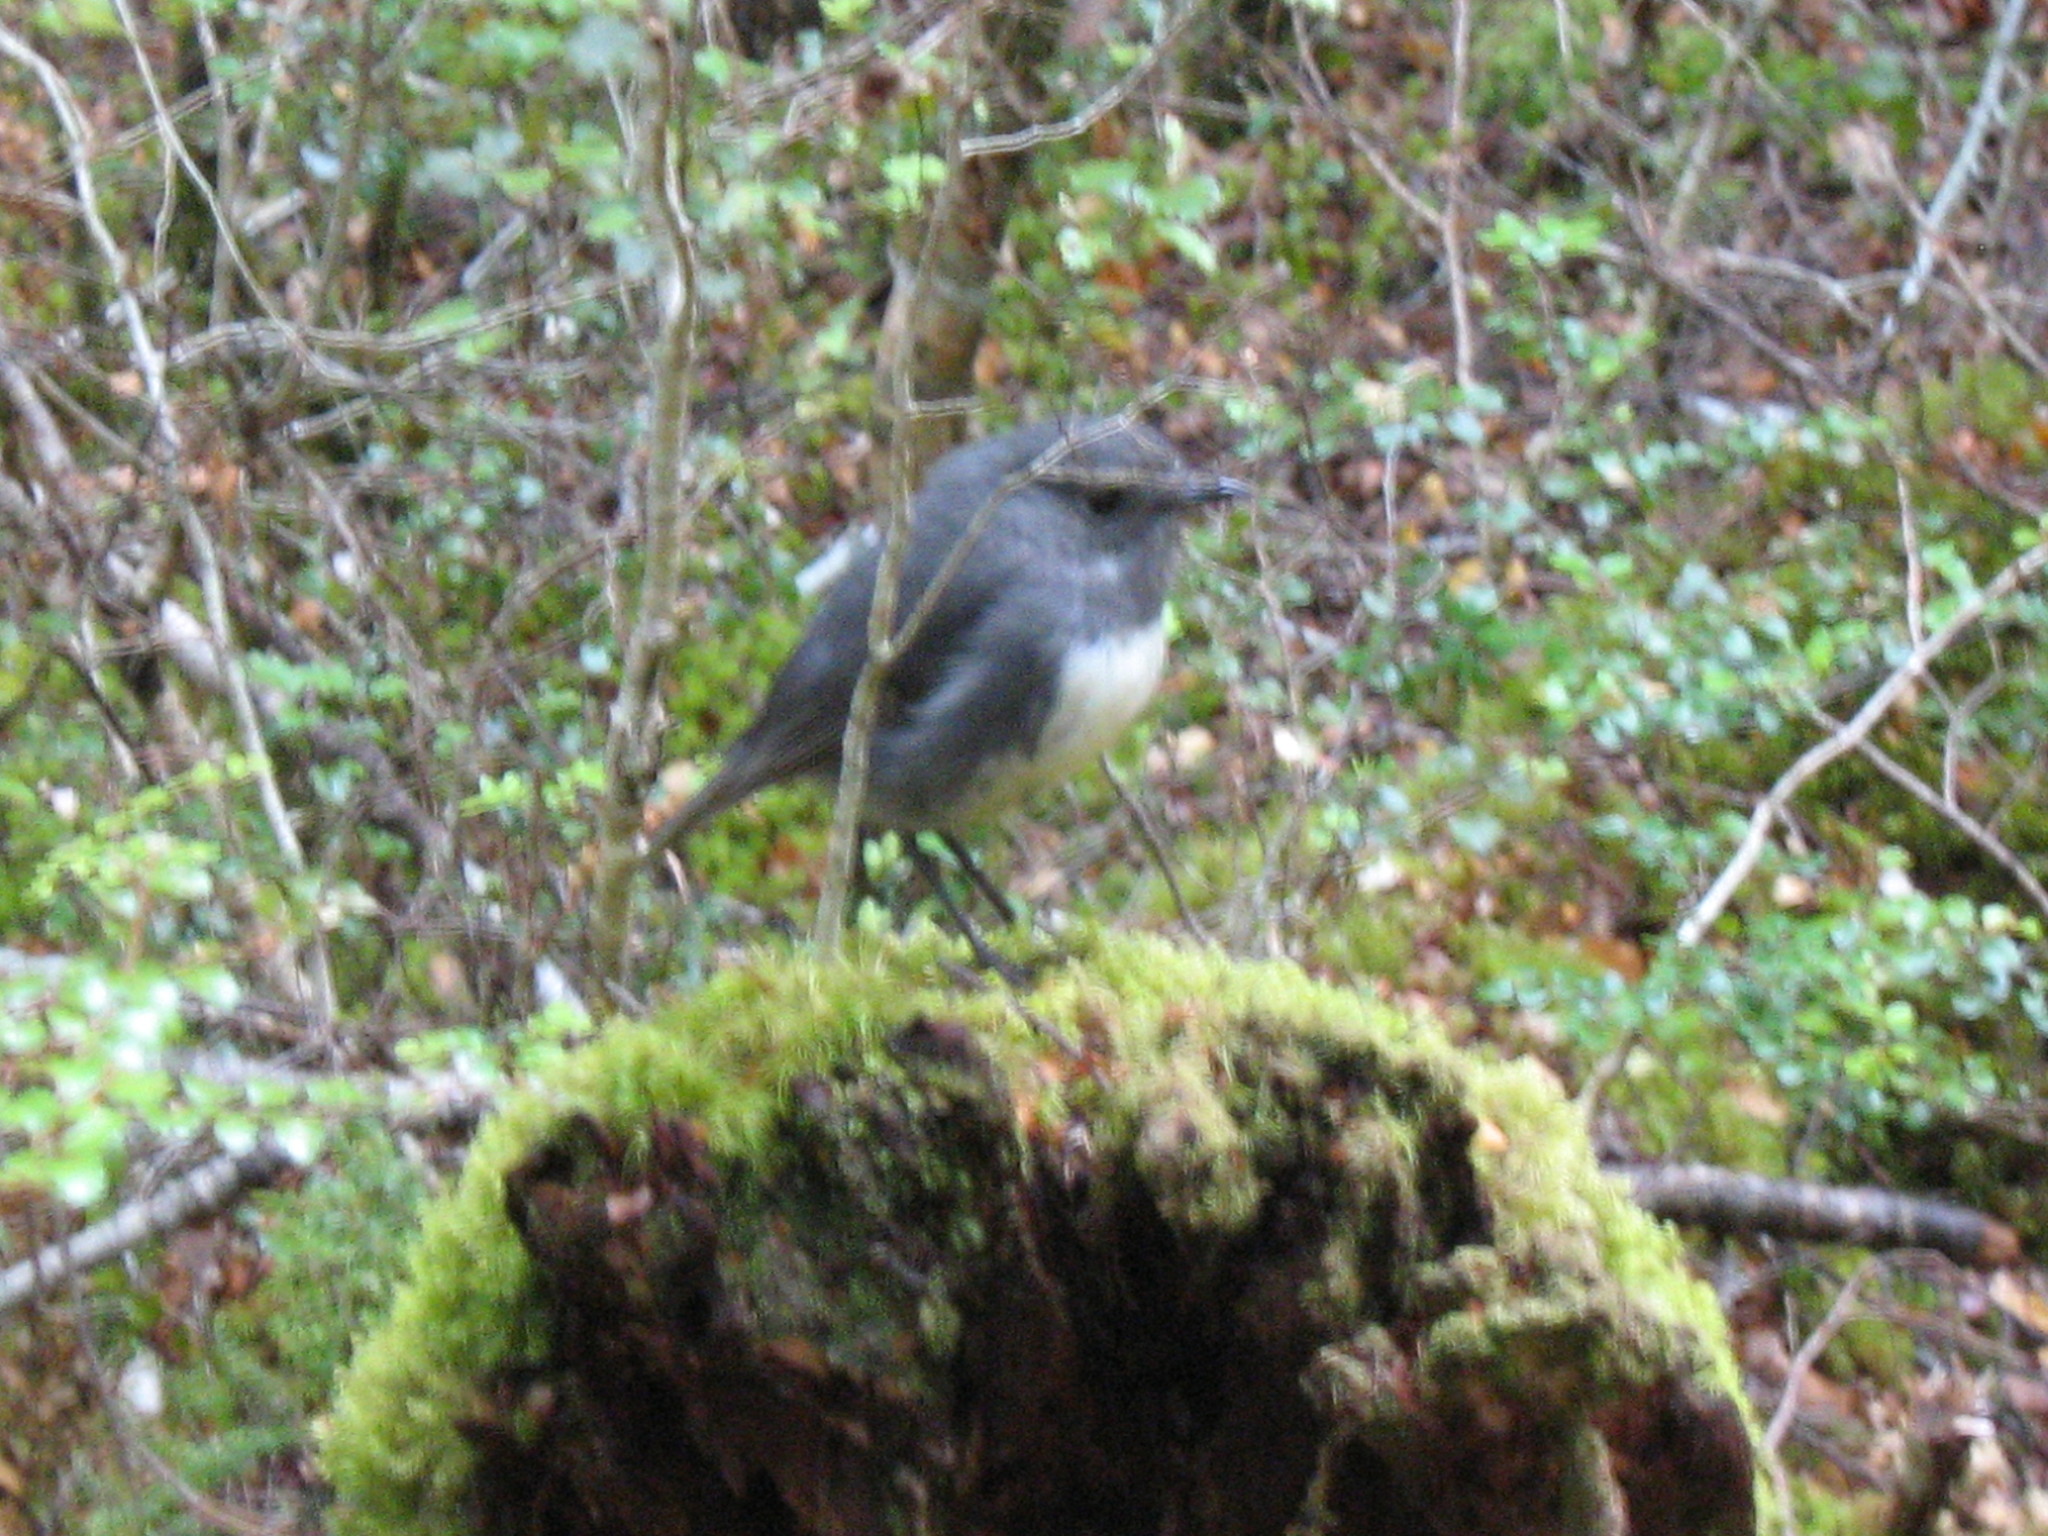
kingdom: Animalia
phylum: Chordata
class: Aves
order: Passeriformes
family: Petroicidae
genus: Petroica
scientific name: Petroica australis
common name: New zealand robin
